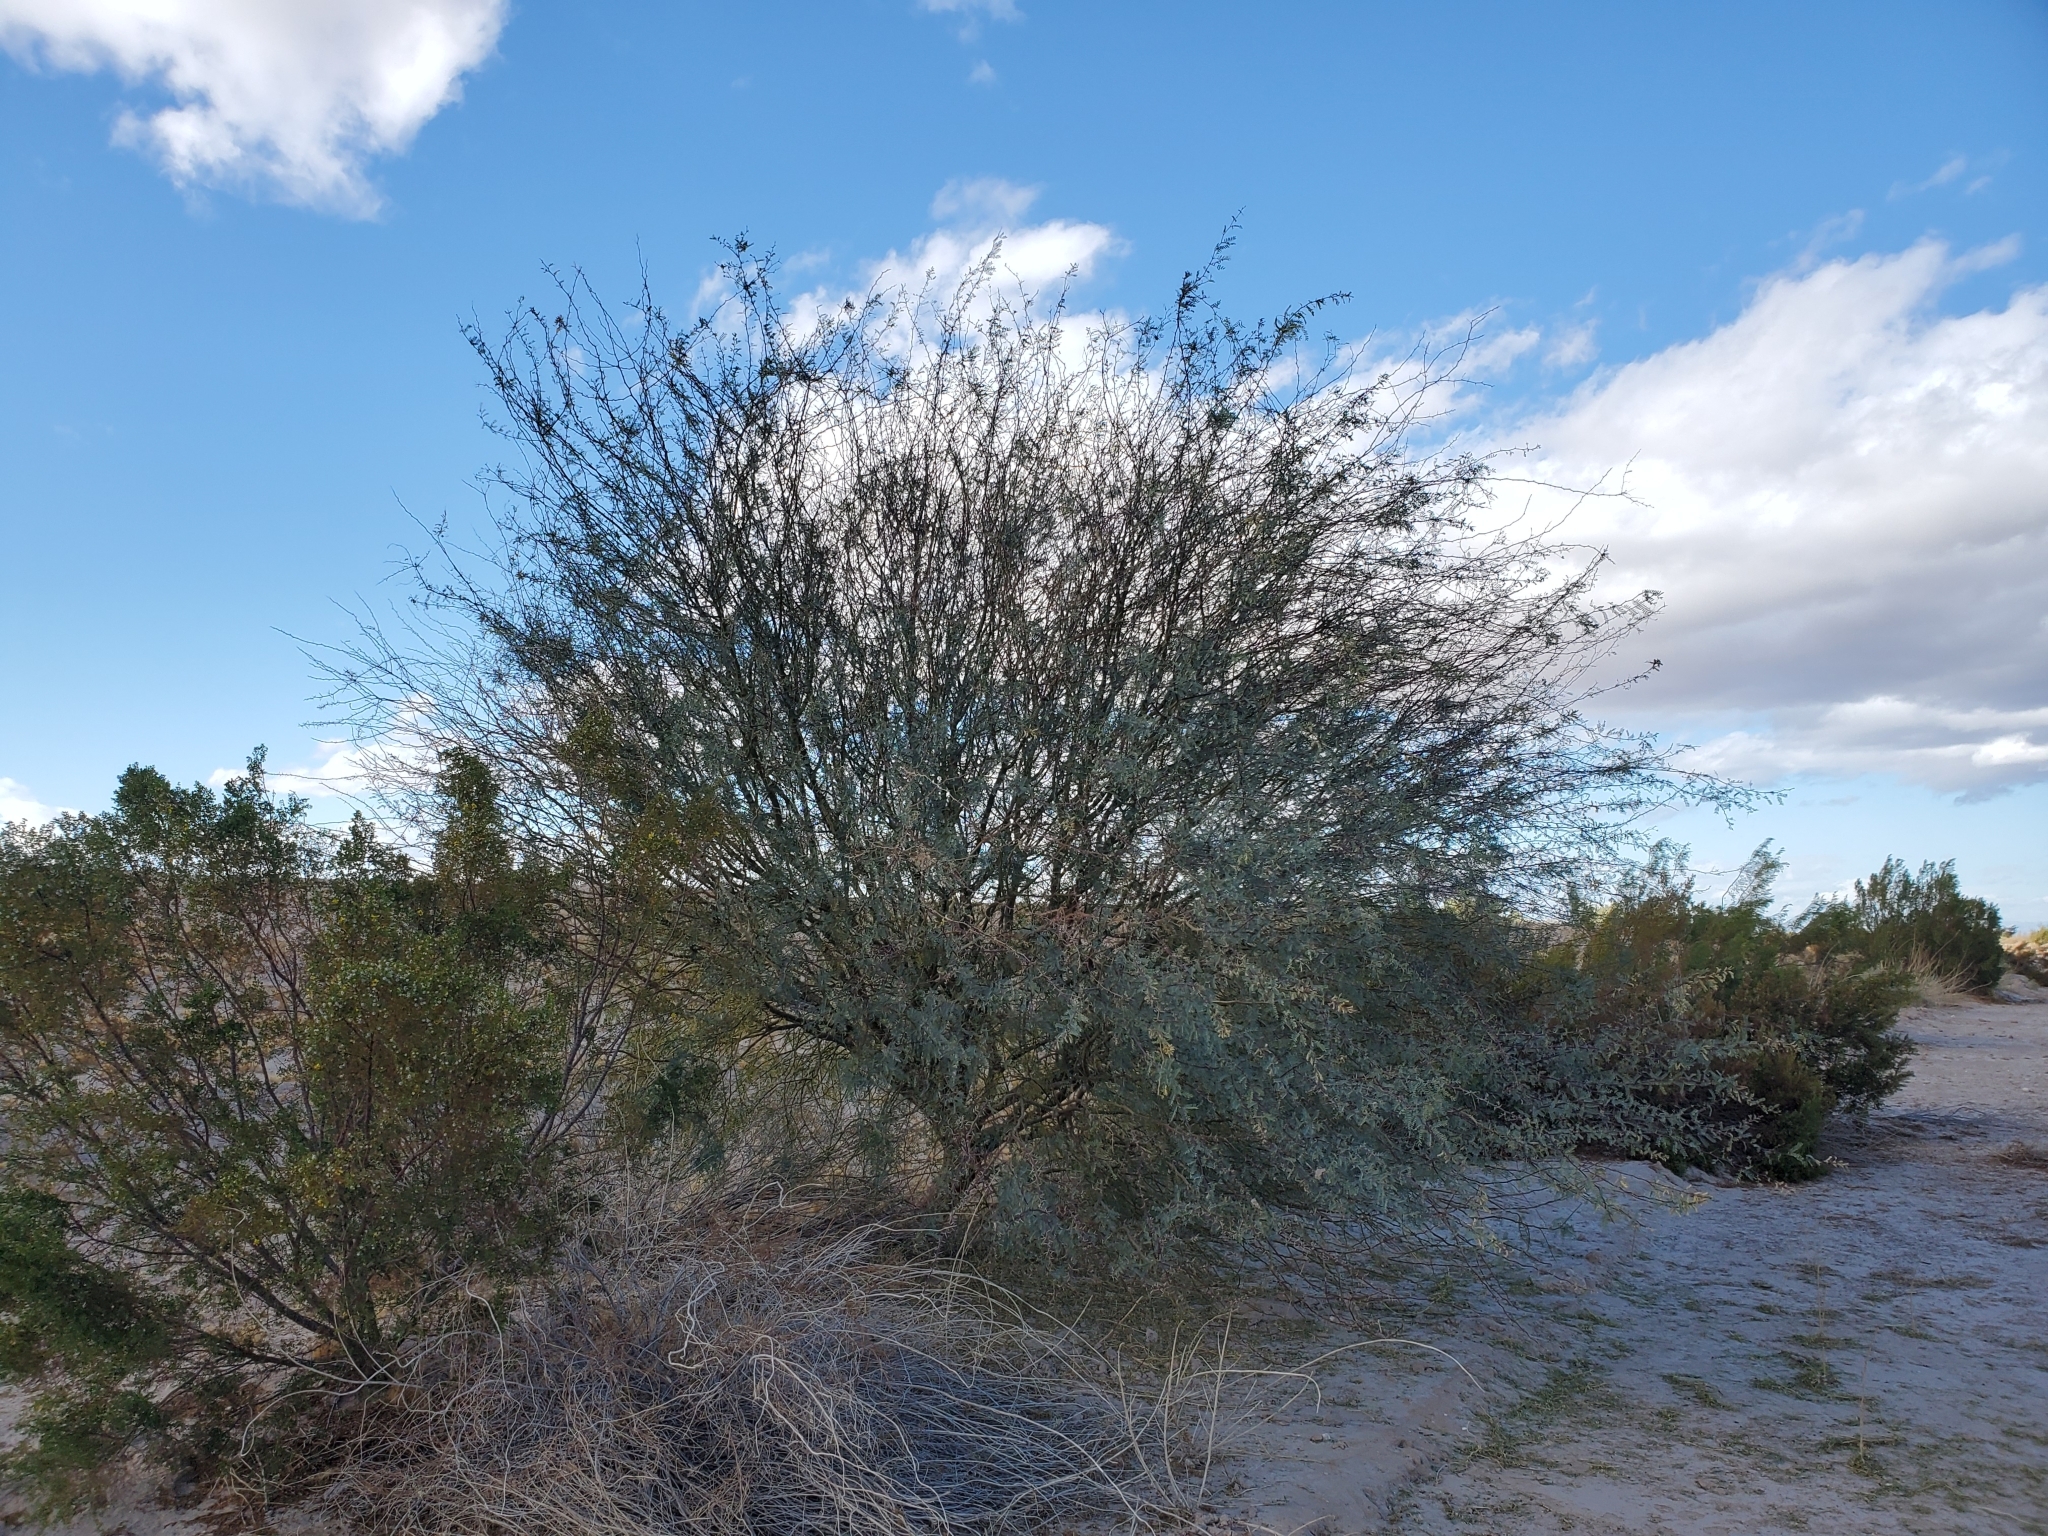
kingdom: Plantae
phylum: Tracheophyta
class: Magnoliopsida
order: Fabales
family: Fabaceae
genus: Prosopis
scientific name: Prosopis pubescens
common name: Screw-bean
